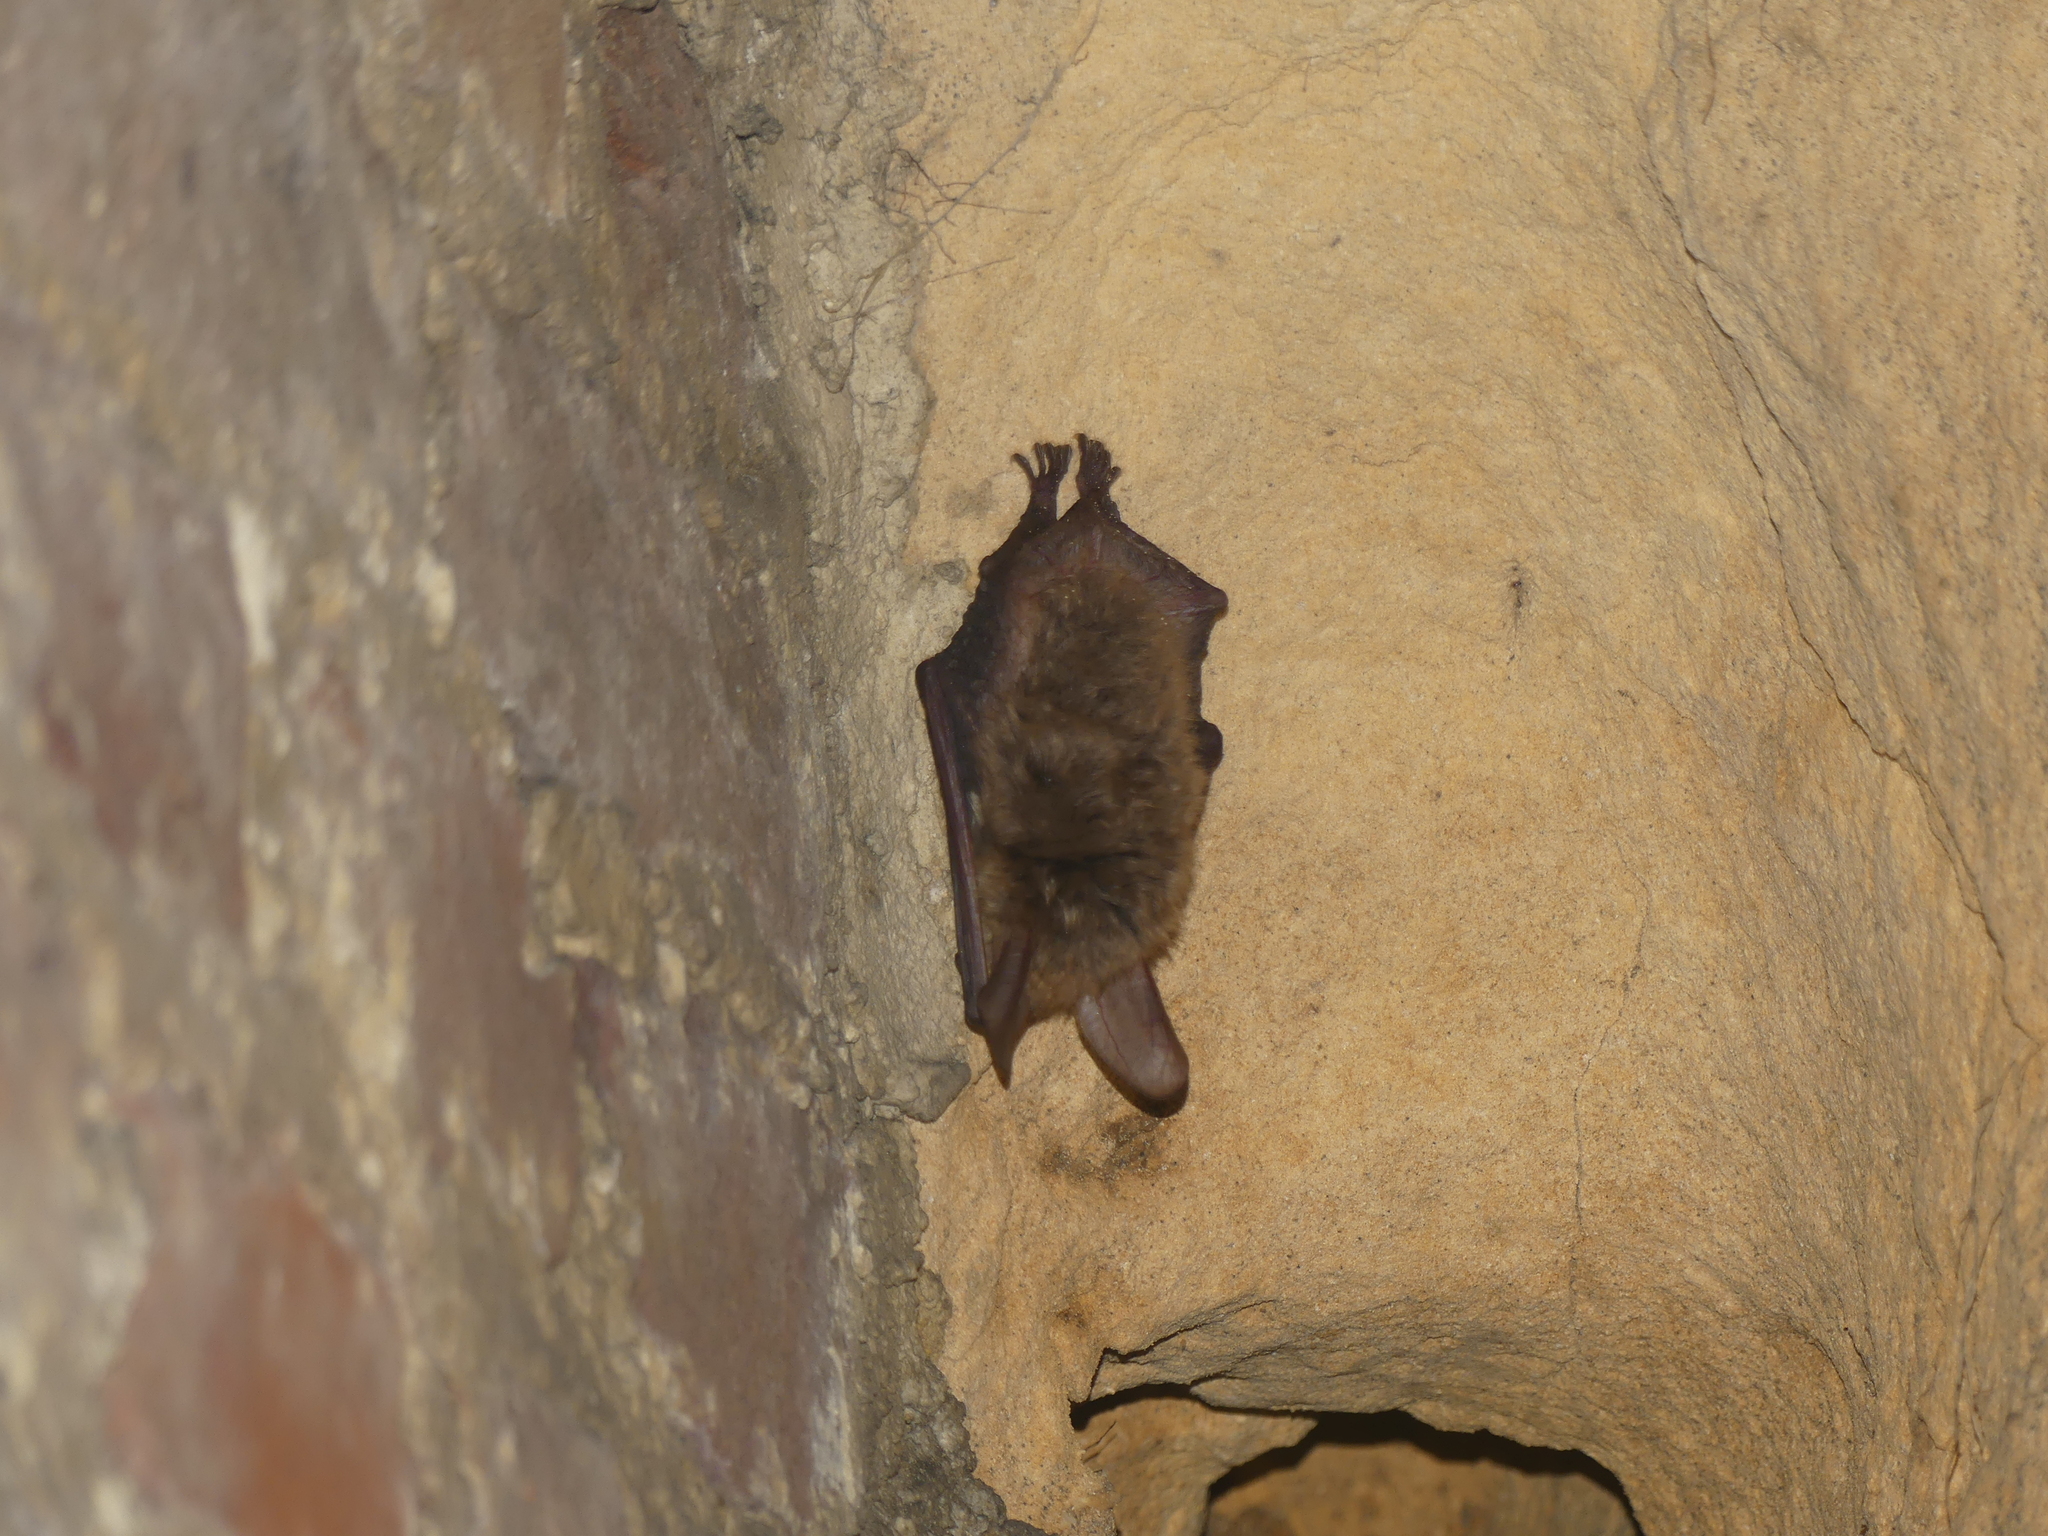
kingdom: Animalia
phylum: Chordata
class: Mammalia
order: Chiroptera
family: Vespertilionidae
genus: Myotis
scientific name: Myotis bechsteinii
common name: Bechstein's myotis
